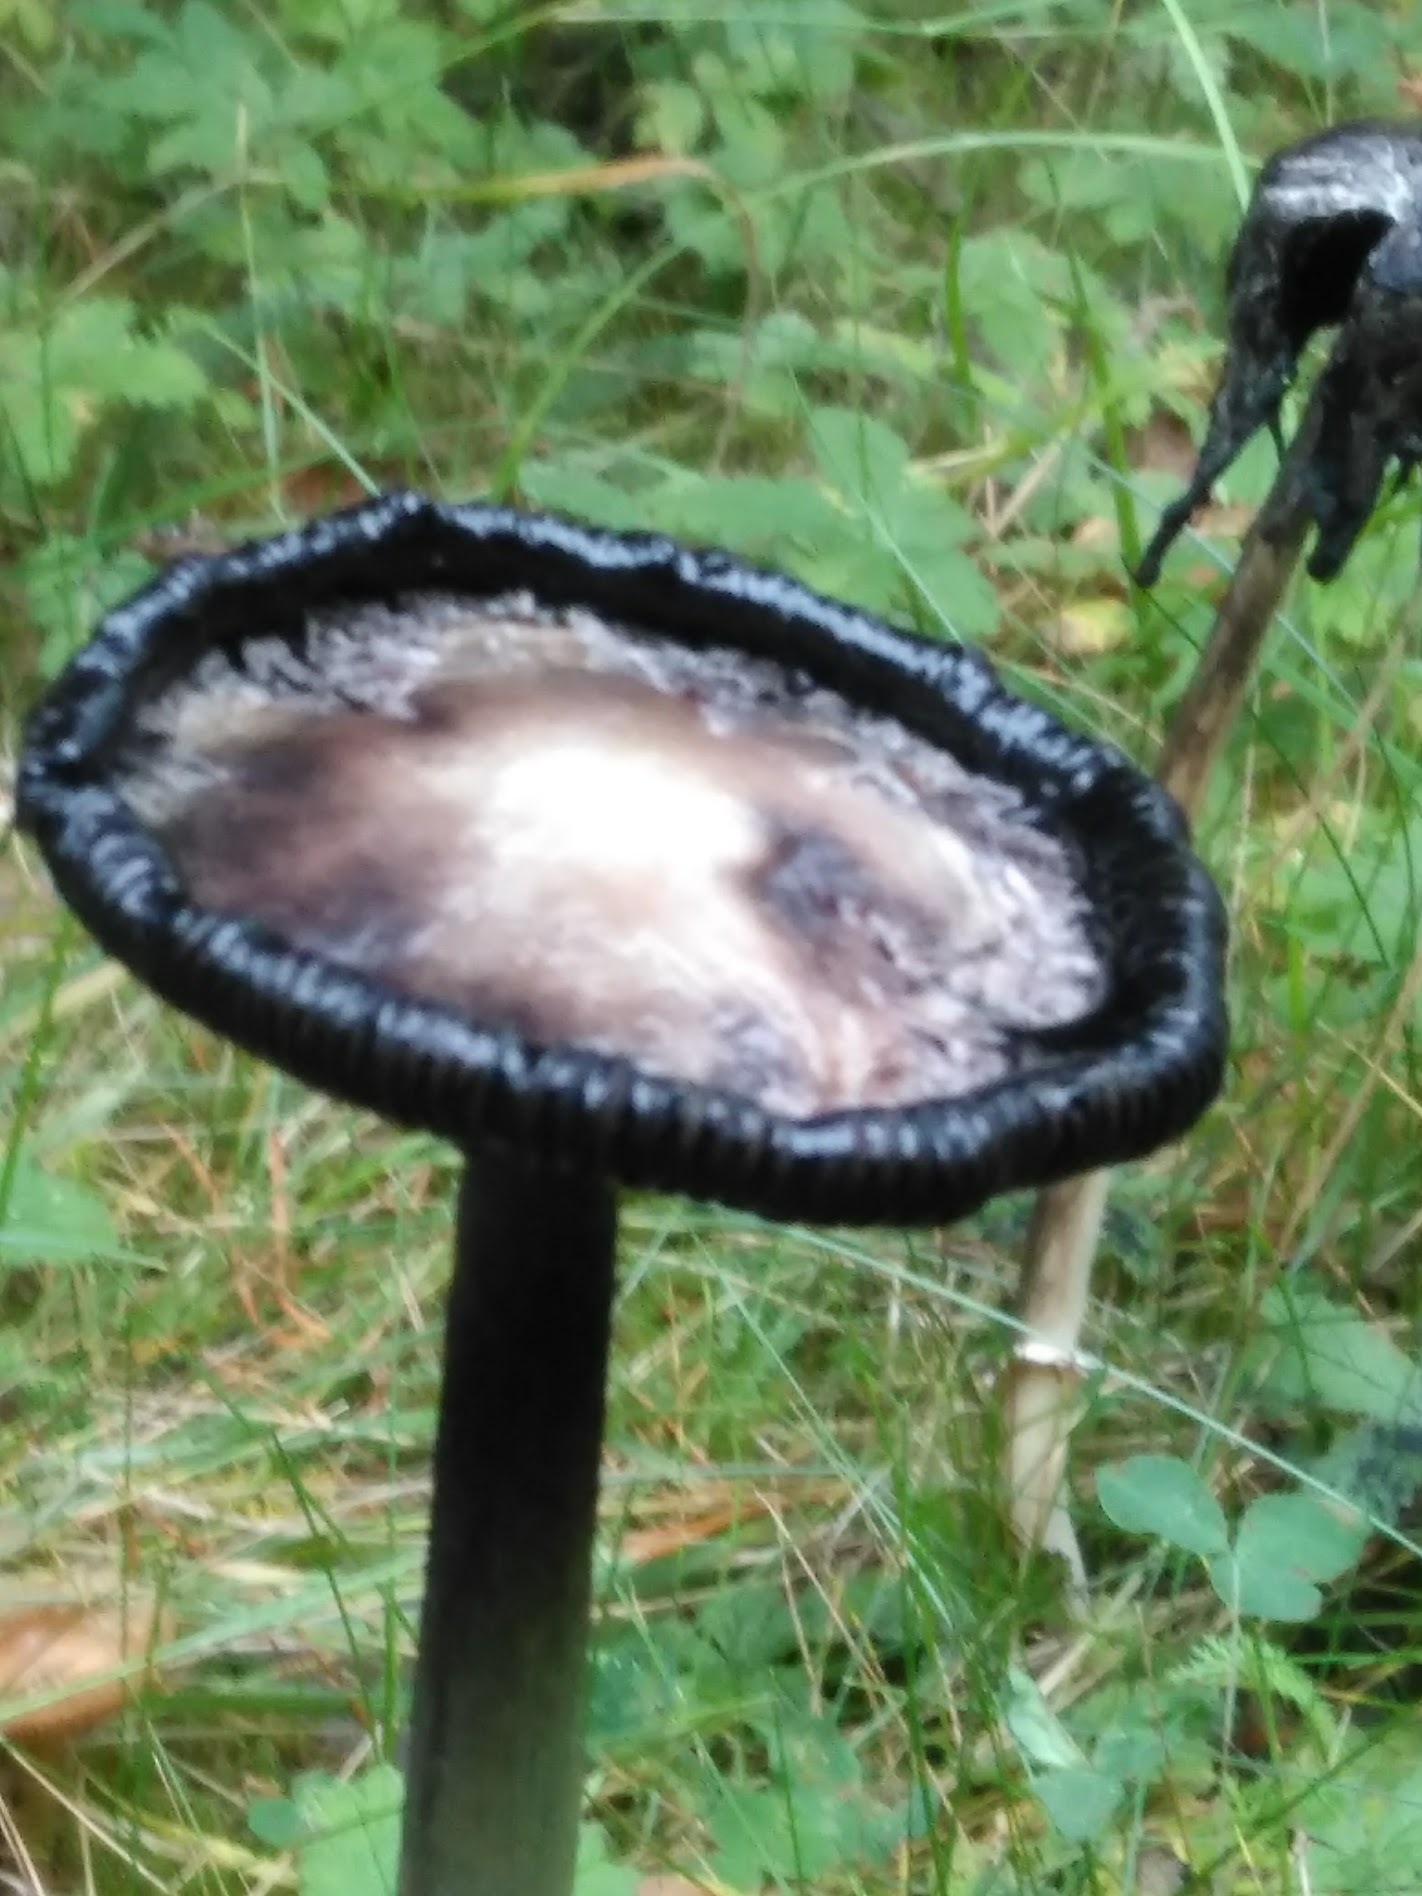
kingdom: Fungi
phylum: Basidiomycota
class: Agaricomycetes
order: Agaricales
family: Agaricaceae
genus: Coprinus
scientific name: Coprinus comatus
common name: Lawyer's wig
